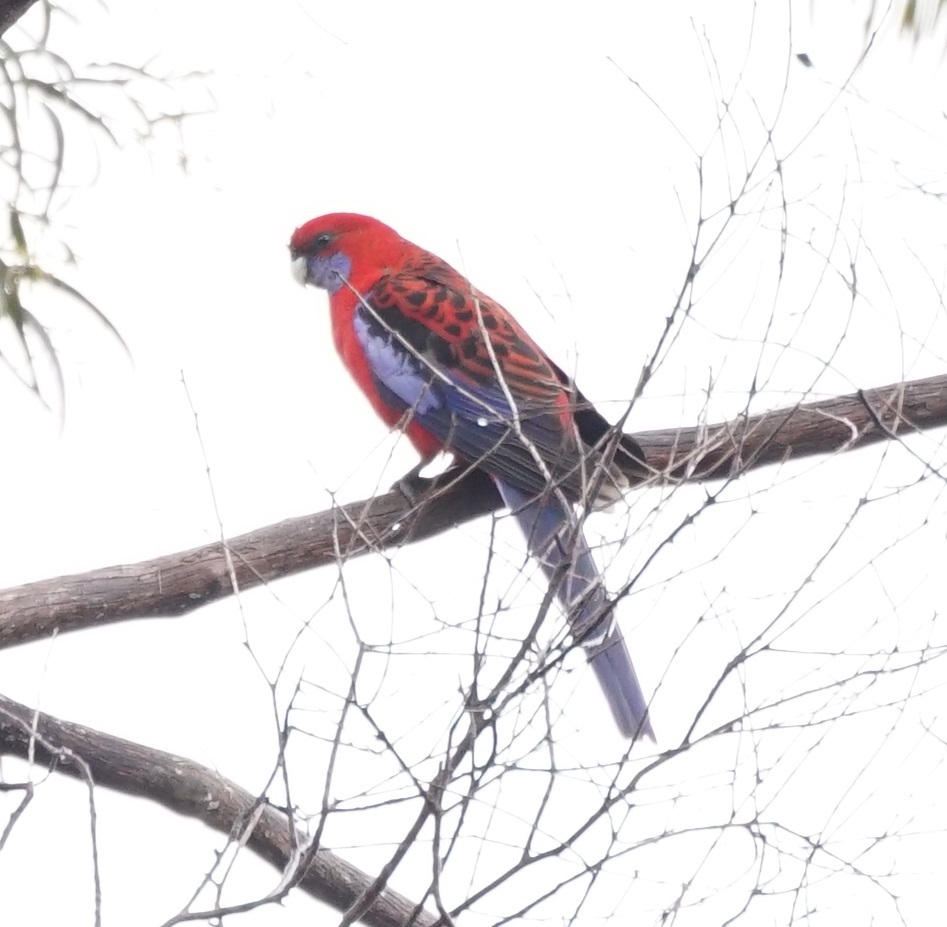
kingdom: Animalia
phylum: Chordata
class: Aves
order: Psittaciformes
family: Psittacidae
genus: Platycercus
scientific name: Platycercus elegans
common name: Crimson rosella
